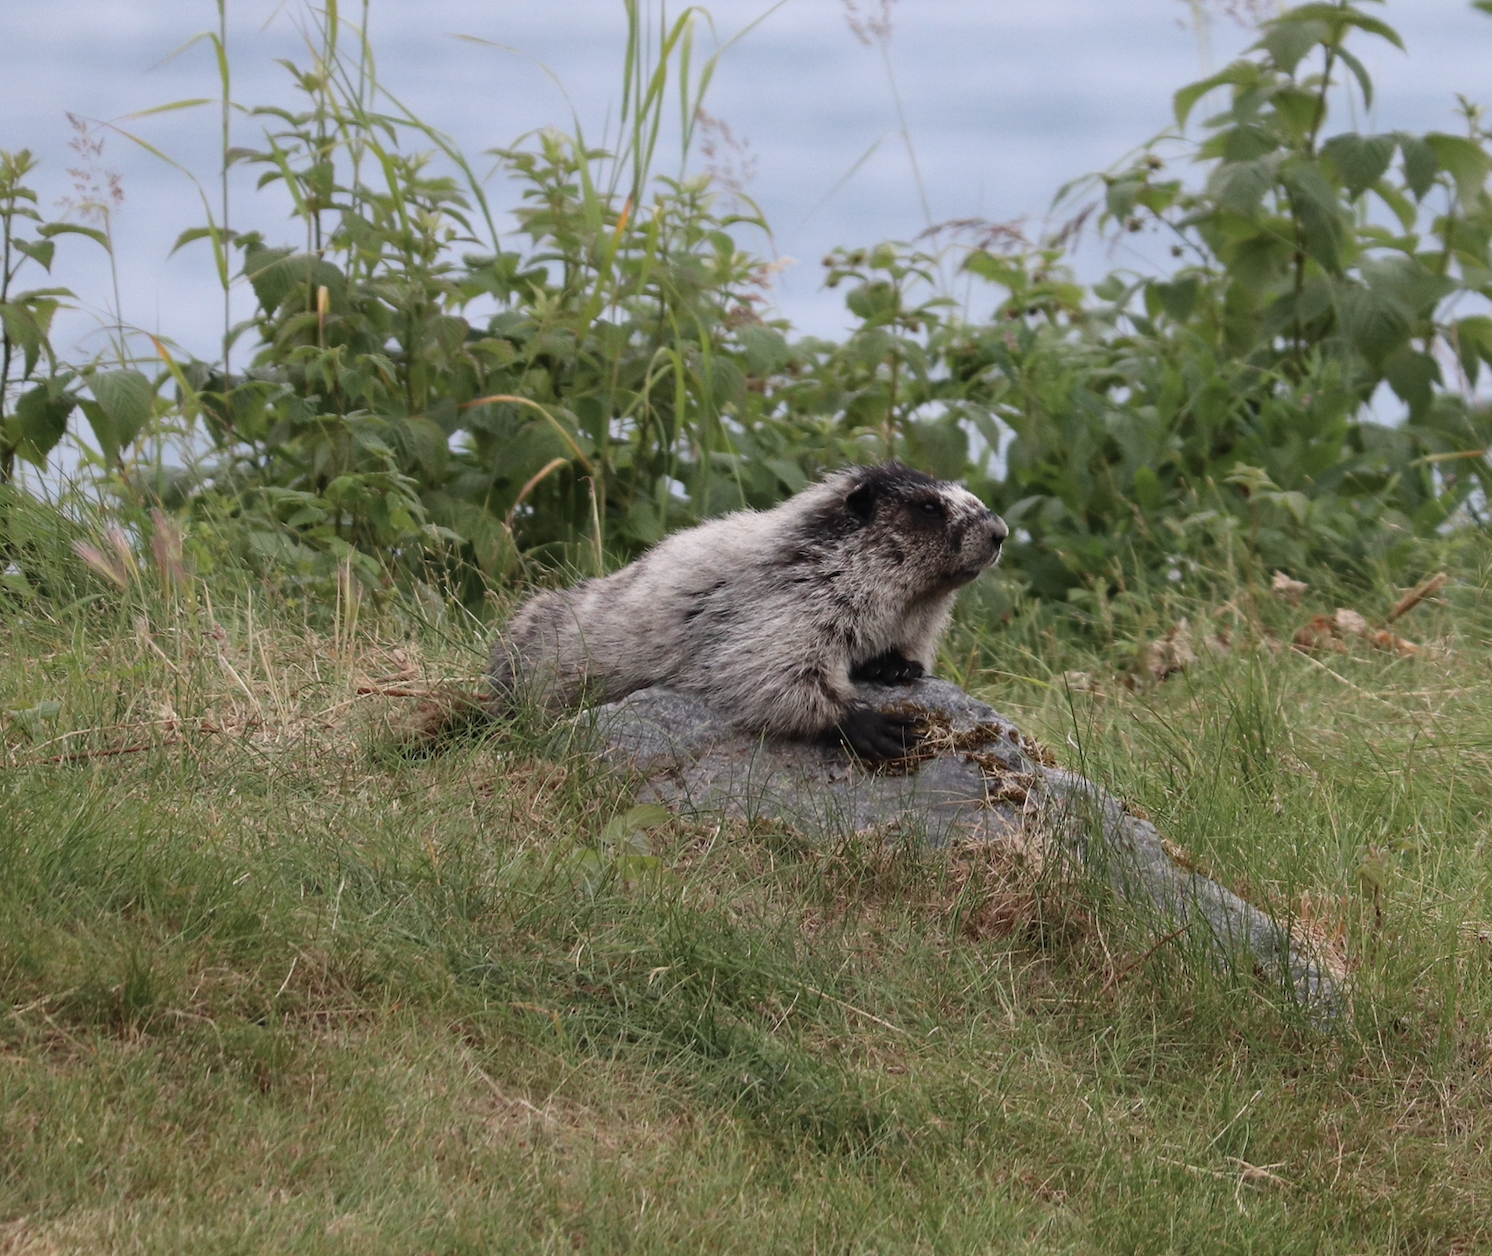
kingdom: Animalia
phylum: Chordata
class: Mammalia
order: Rodentia
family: Sciuridae
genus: Marmota
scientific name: Marmota caligata
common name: Hoary marmot
